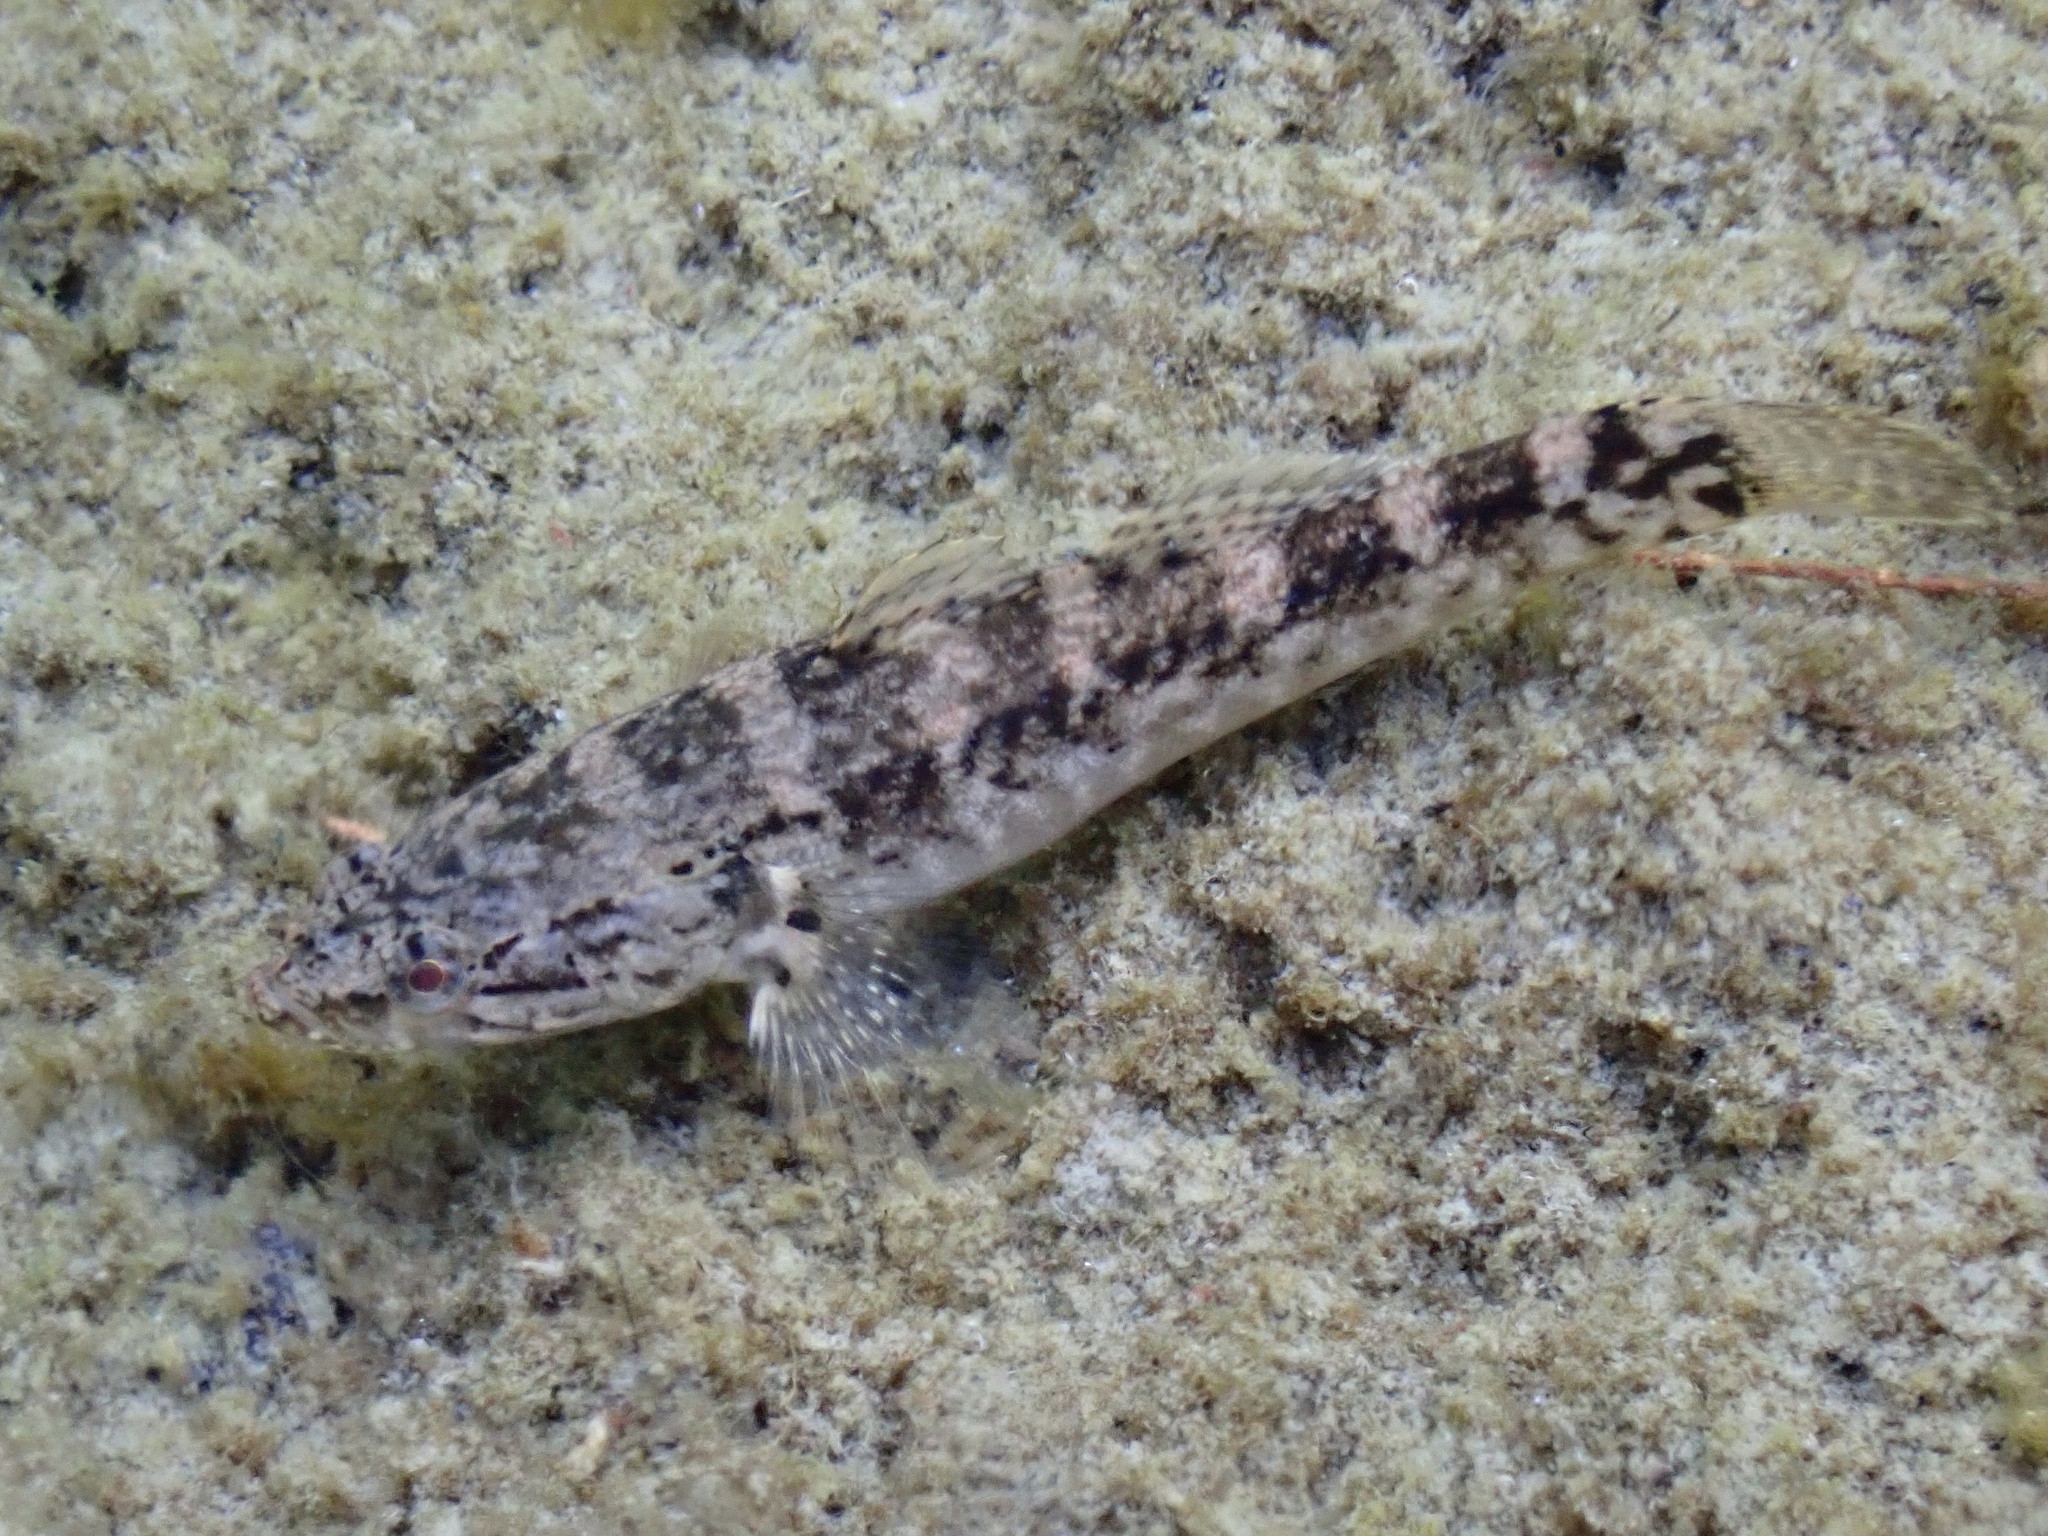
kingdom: Animalia
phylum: Chordata
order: Perciformes
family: Eleotridae
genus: Eleotris
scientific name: Eleotris sandwicensis
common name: Hawaiian sleeper
